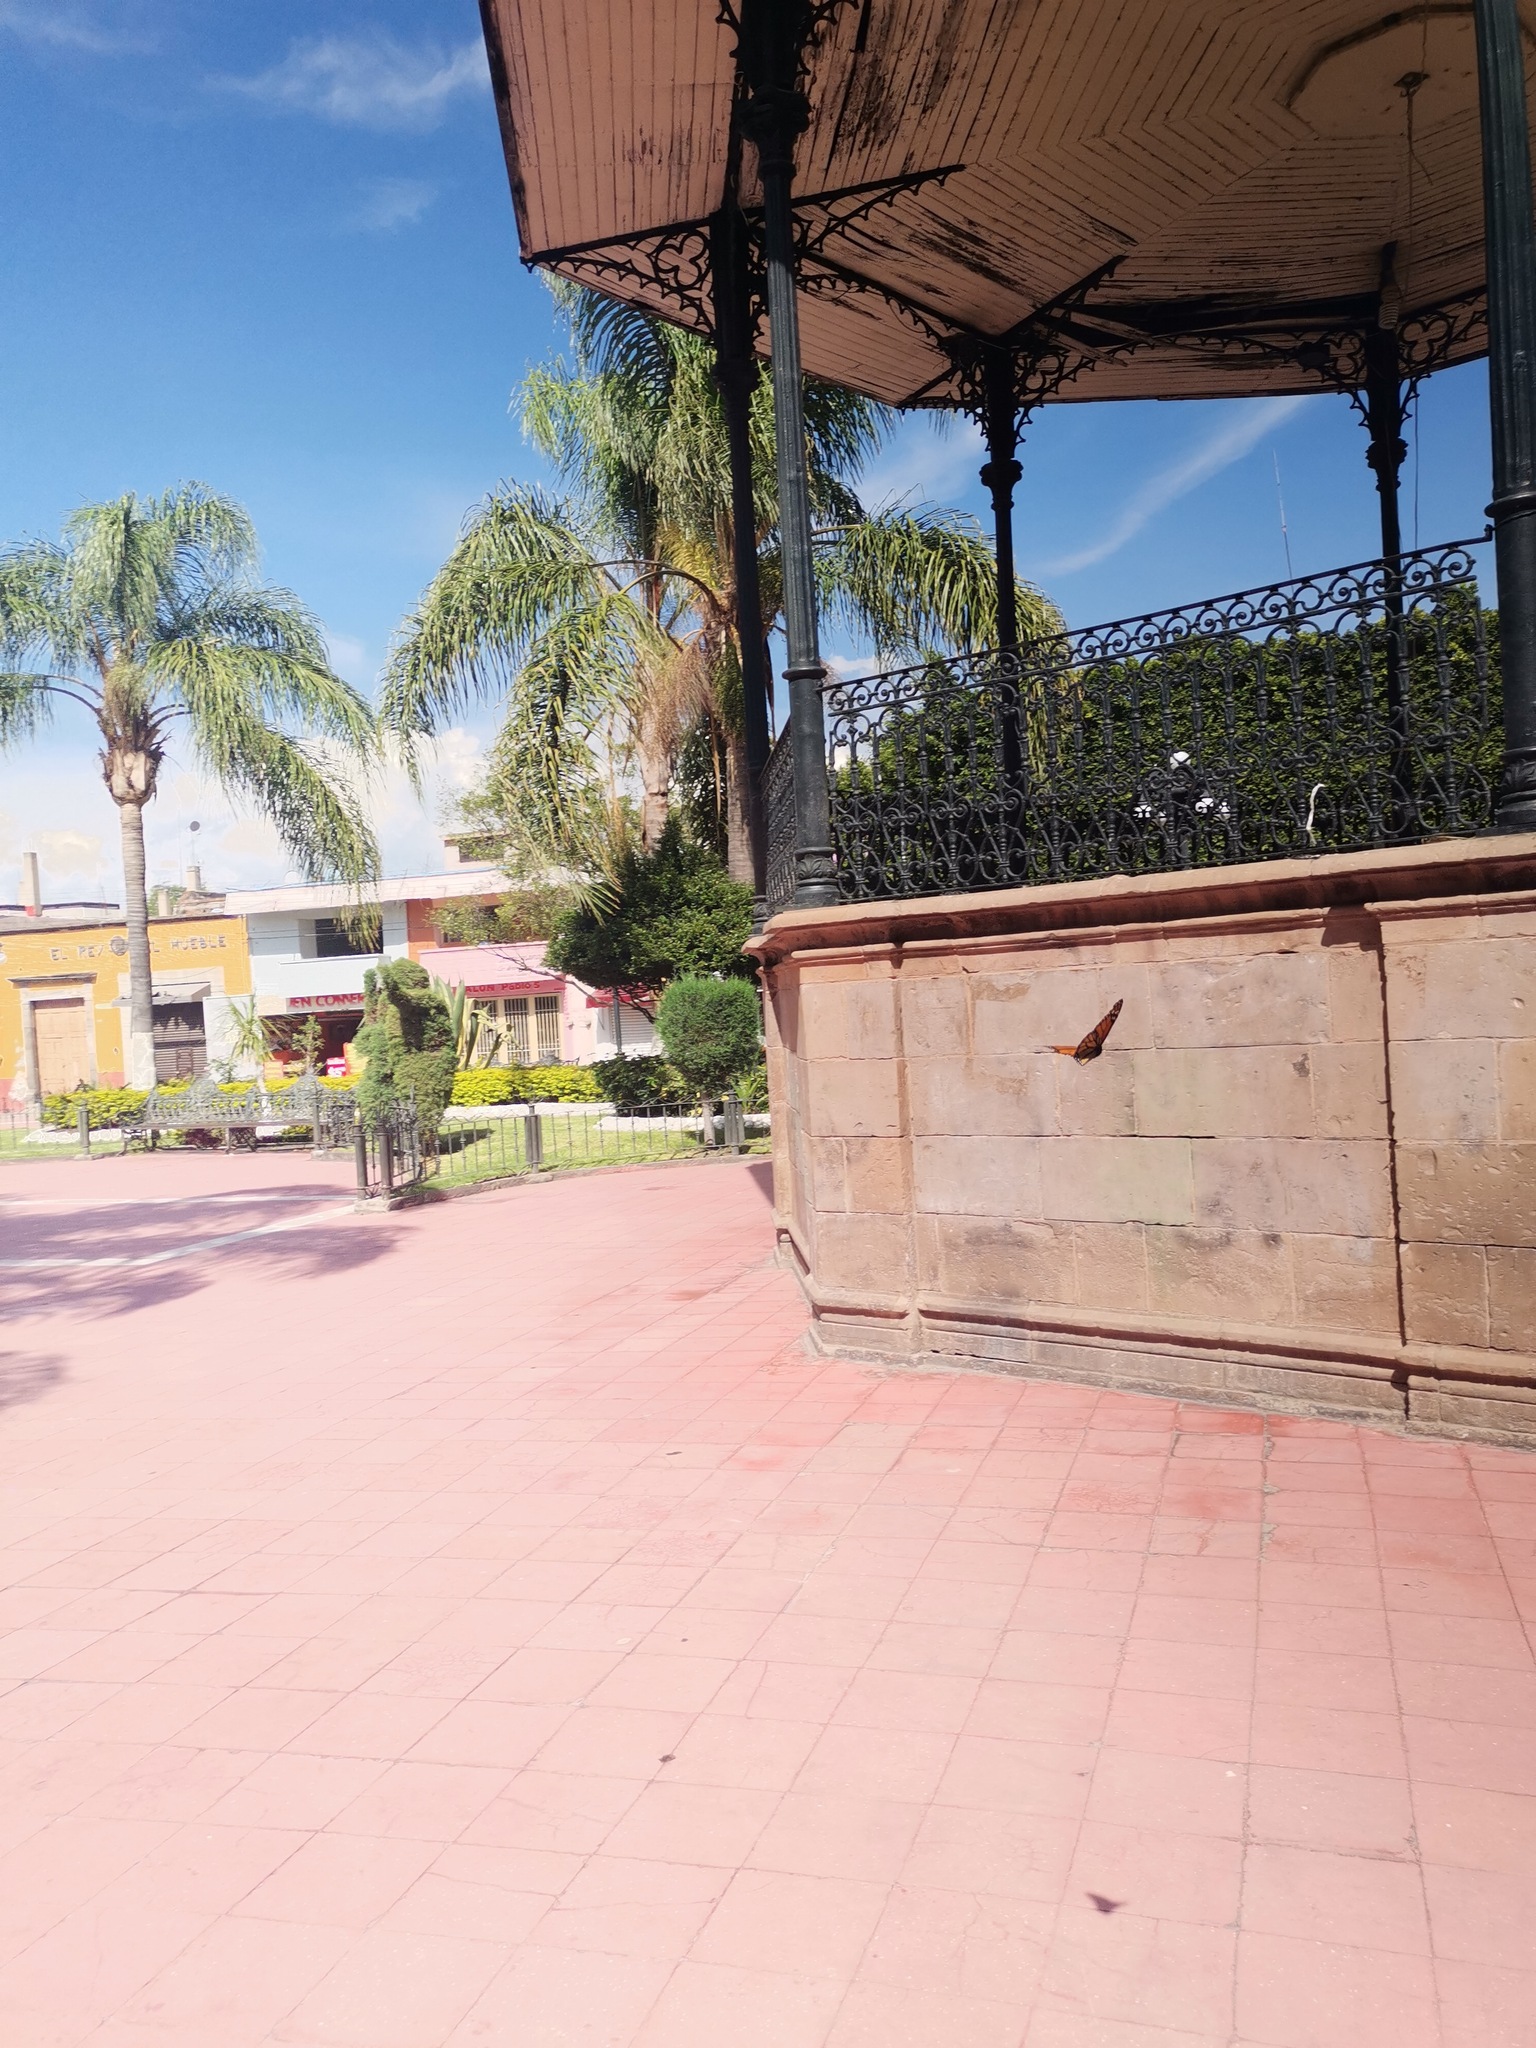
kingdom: Animalia
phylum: Arthropoda
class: Insecta
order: Lepidoptera
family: Nymphalidae
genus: Danaus
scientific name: Danaus plexippus
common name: Monarch
